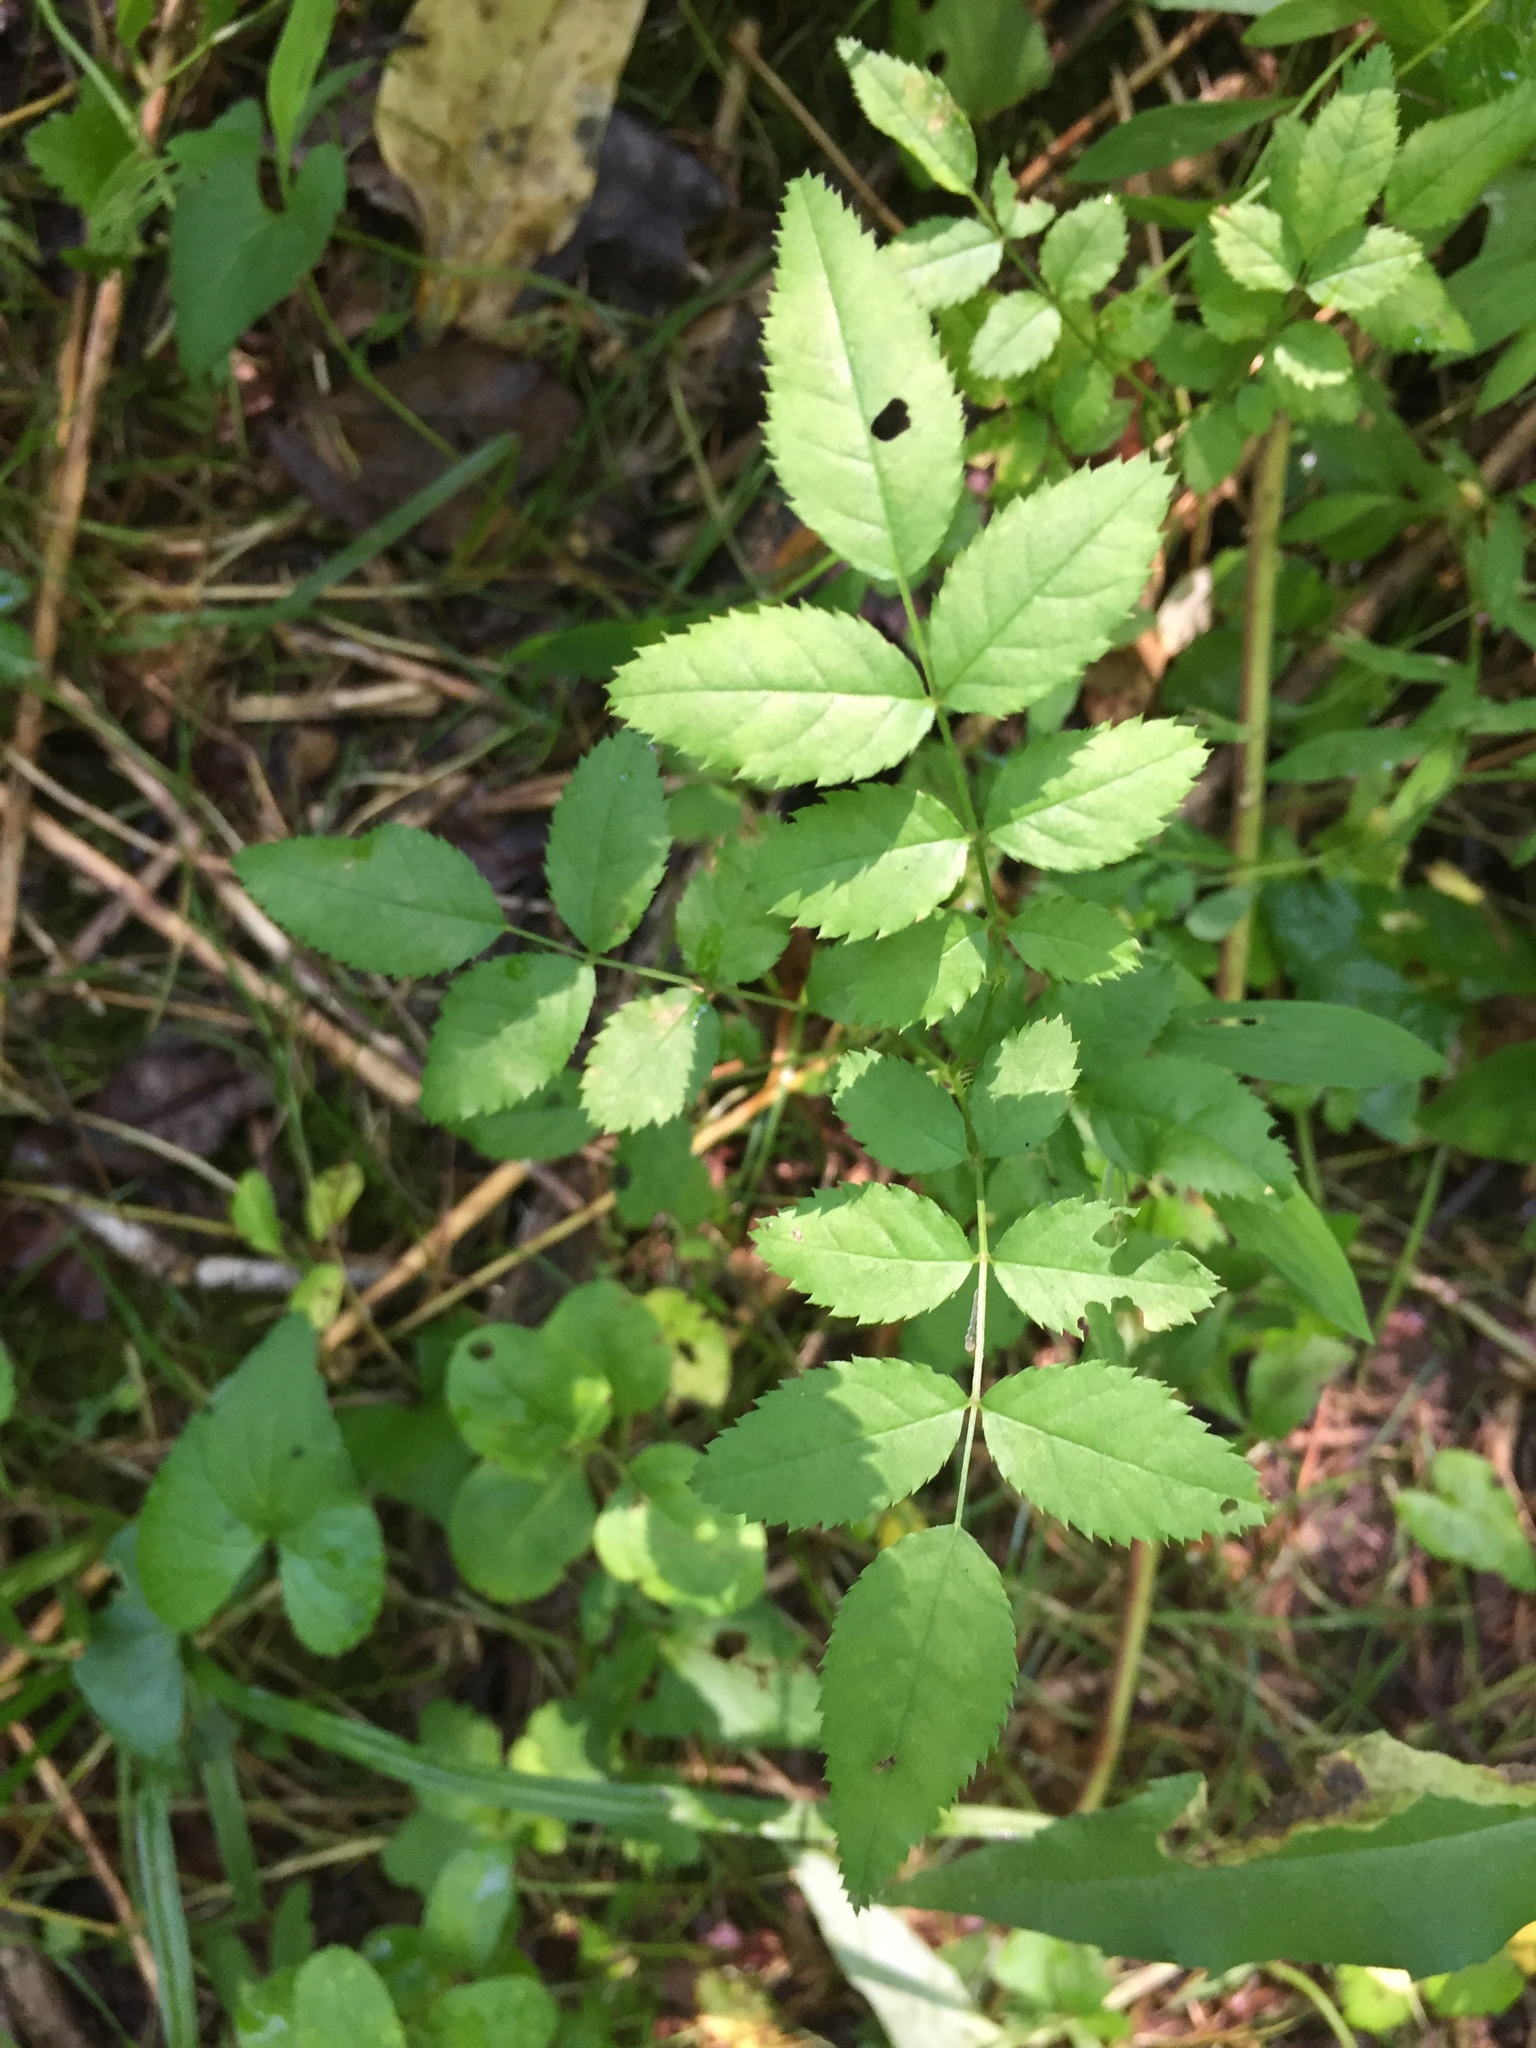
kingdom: Plantae
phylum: Tracheophyta
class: Magnoliopsida
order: Rosales
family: Rosaceae
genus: Rosa
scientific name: Rosa multiflora
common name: Multiflora rose
